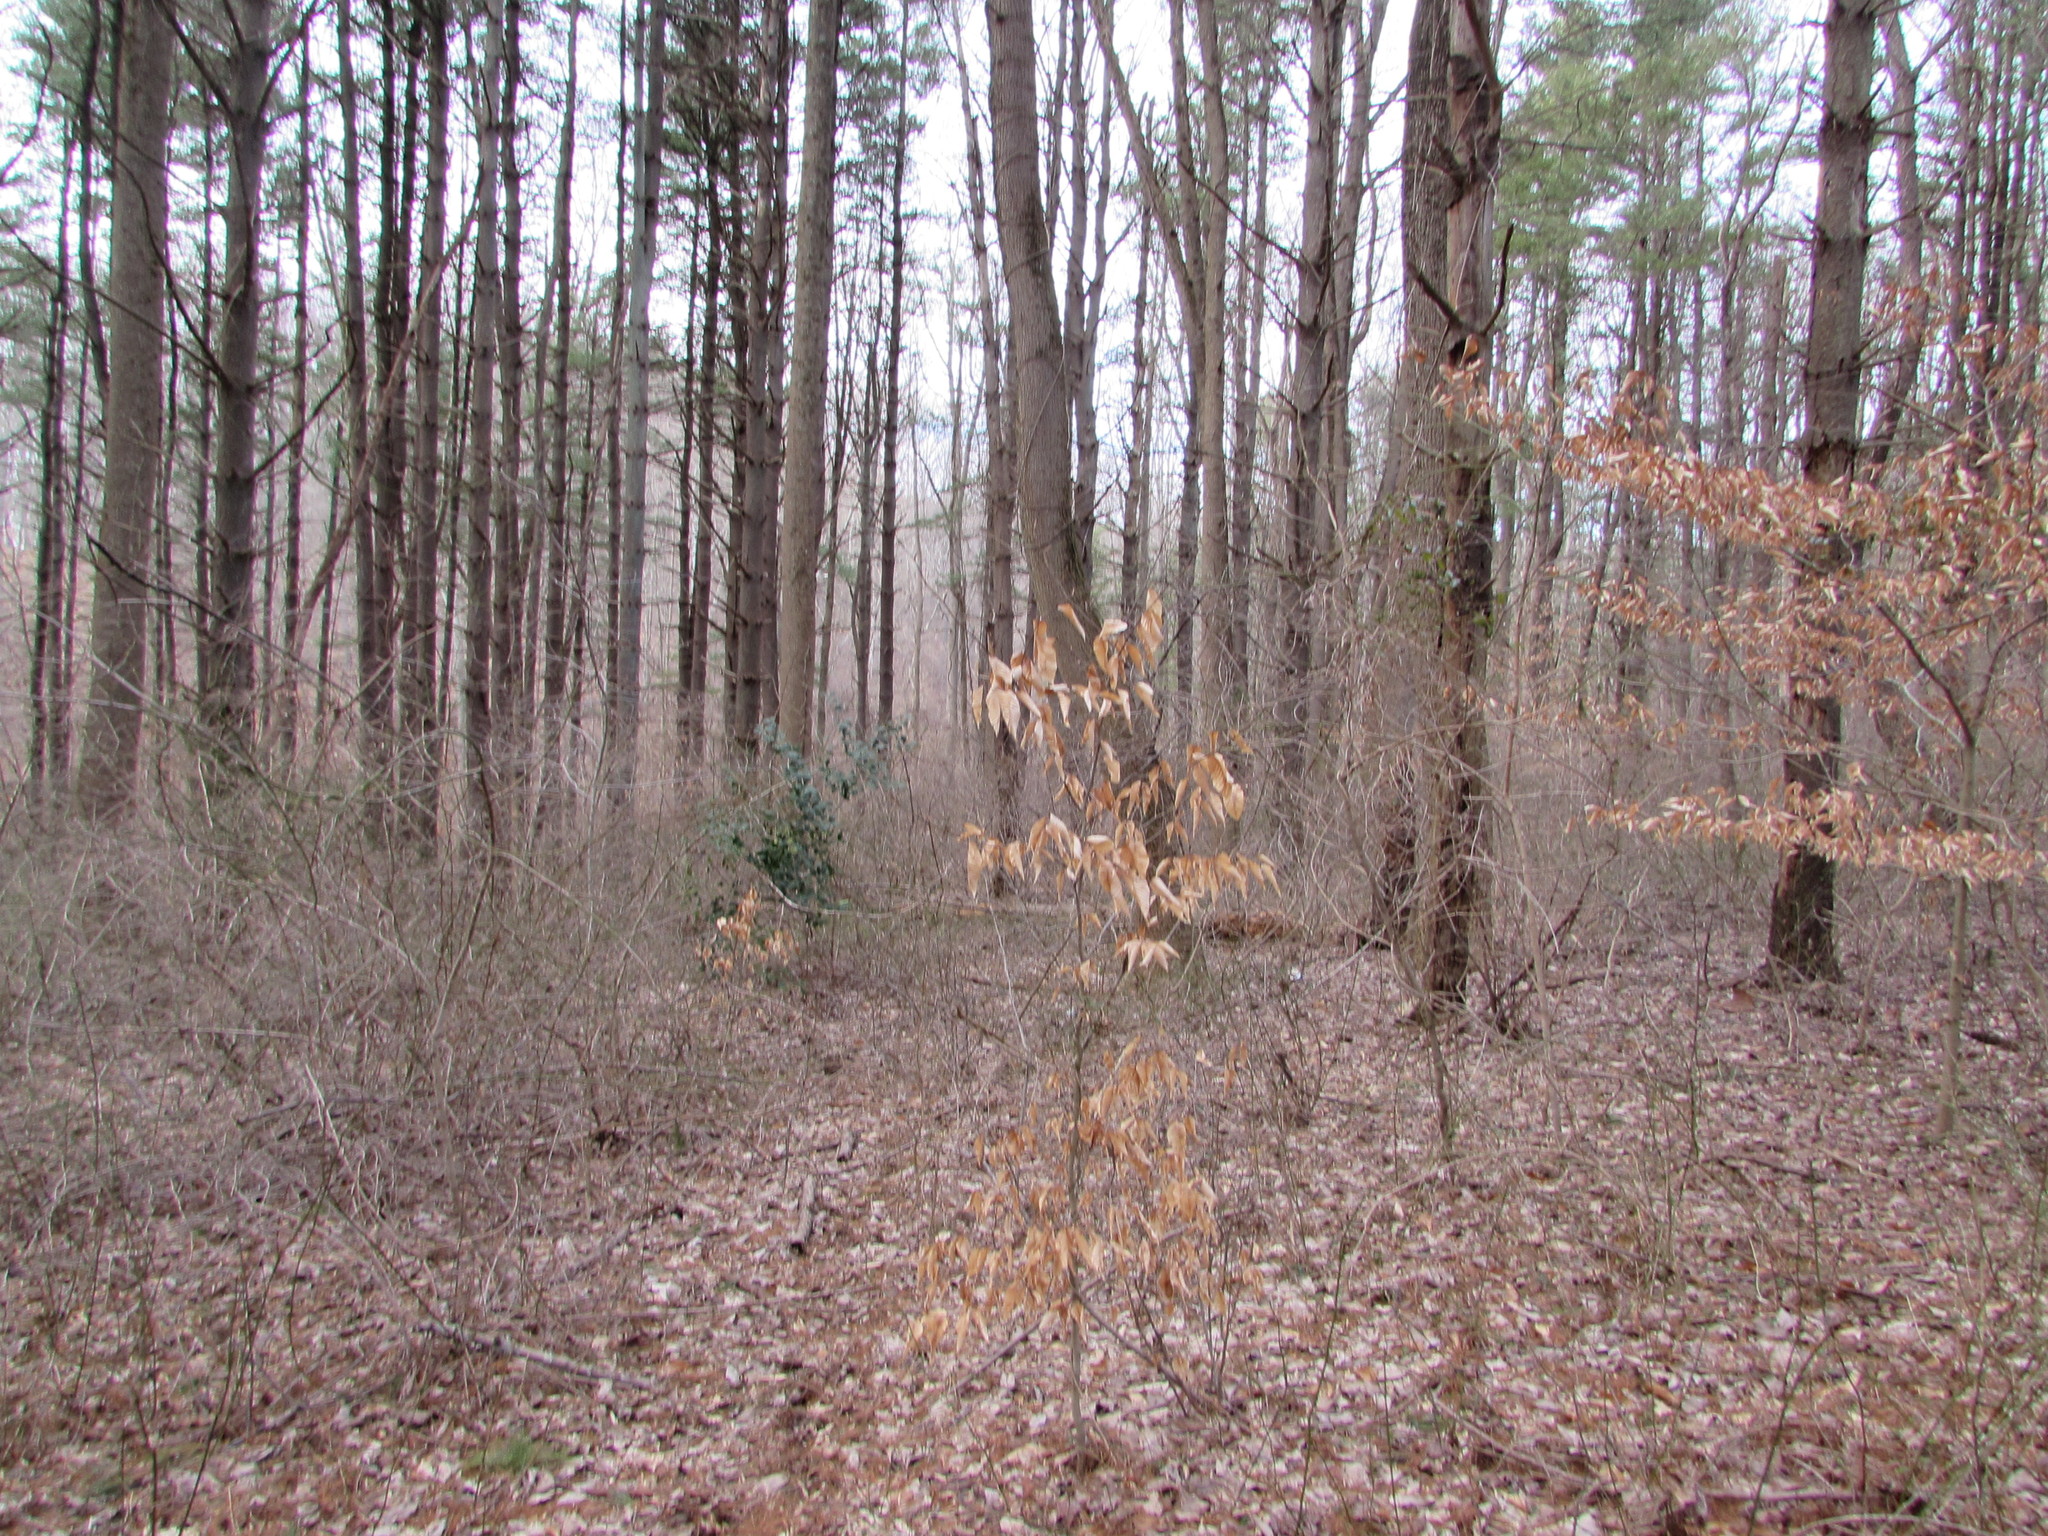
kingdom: Plantae
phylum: Tracheophyta
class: Magnoliopsida
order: Fagales
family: Fagaceae
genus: Fagus
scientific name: Fagus grandifolia
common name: American beech
